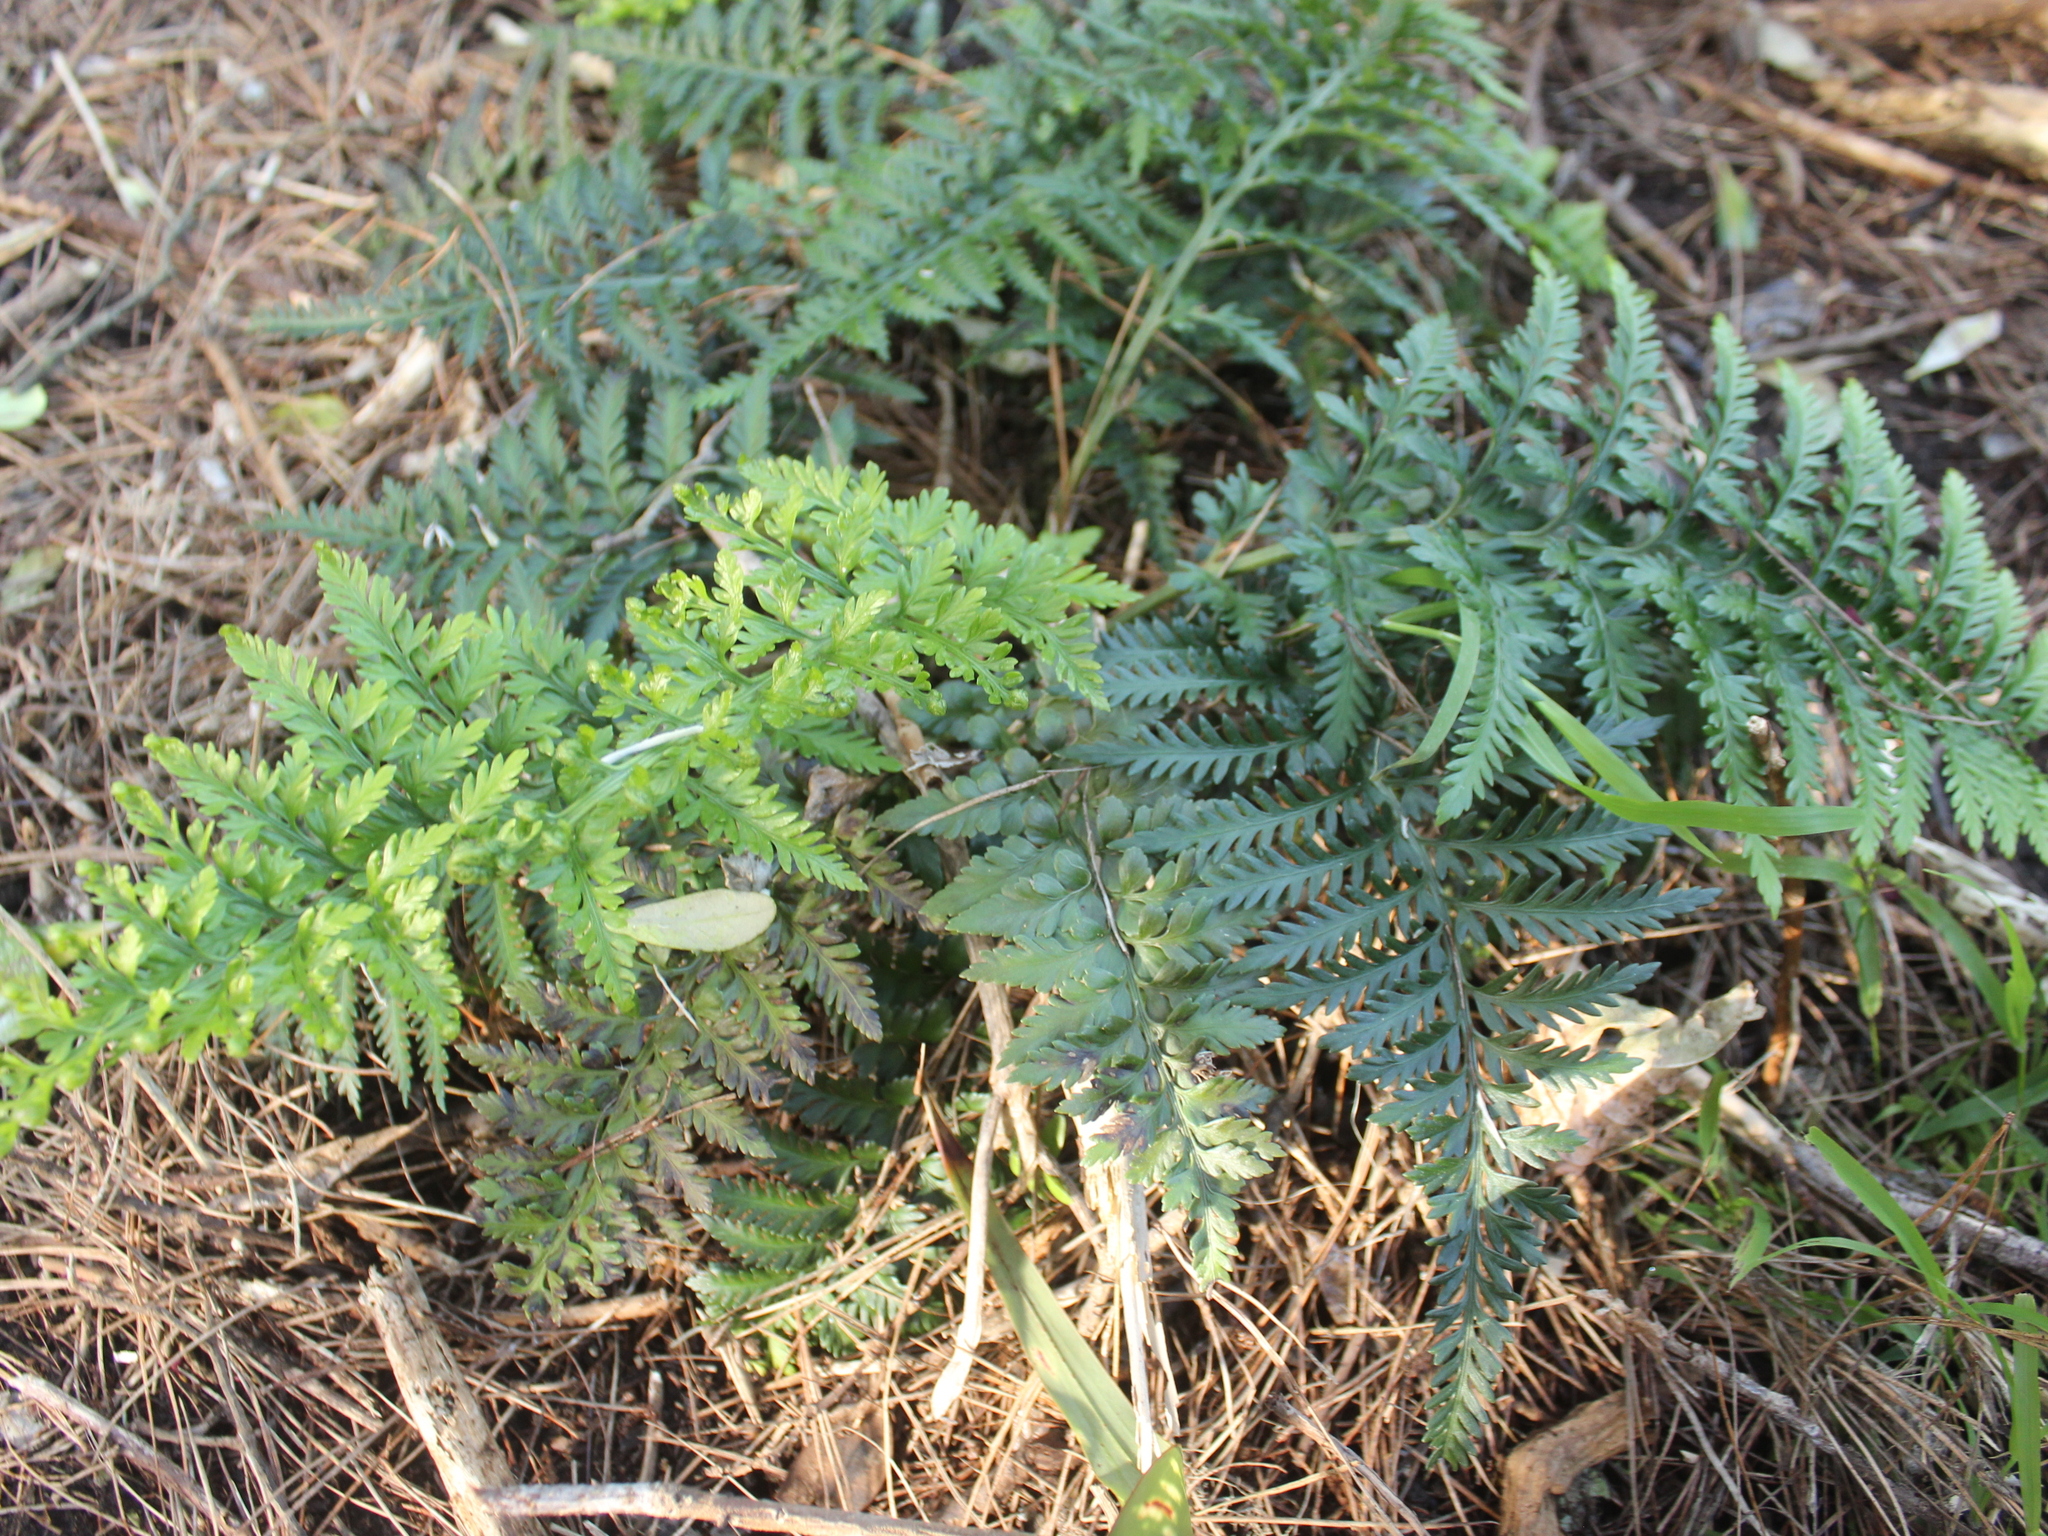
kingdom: Plantae
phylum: Tracheophyta
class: Polypodiopsida
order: Polypodiales
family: Aspleniaceae
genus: Asplenium
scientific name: Asplenium appendiculatum
